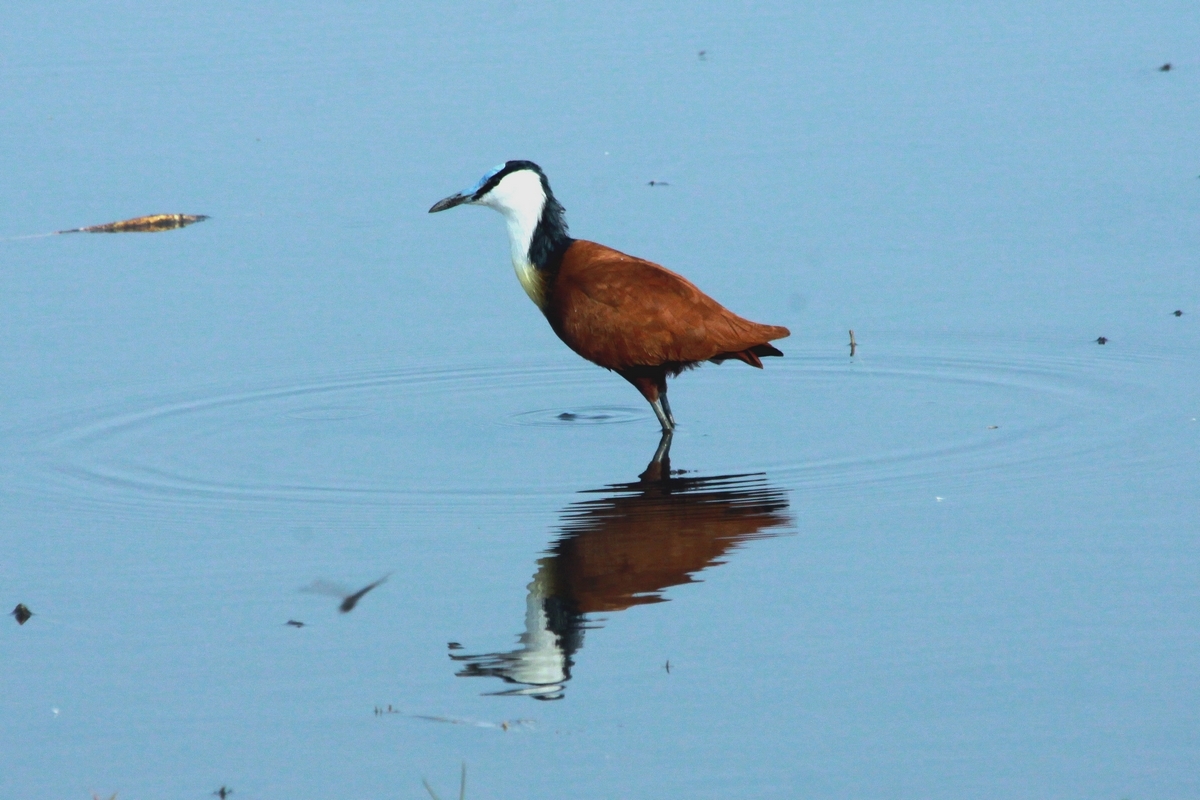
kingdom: Animalia
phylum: Chordata
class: Aves
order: Charadriiformes
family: Jacanidae
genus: Actophilornis
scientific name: Actophilornis africanus
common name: African jacana
